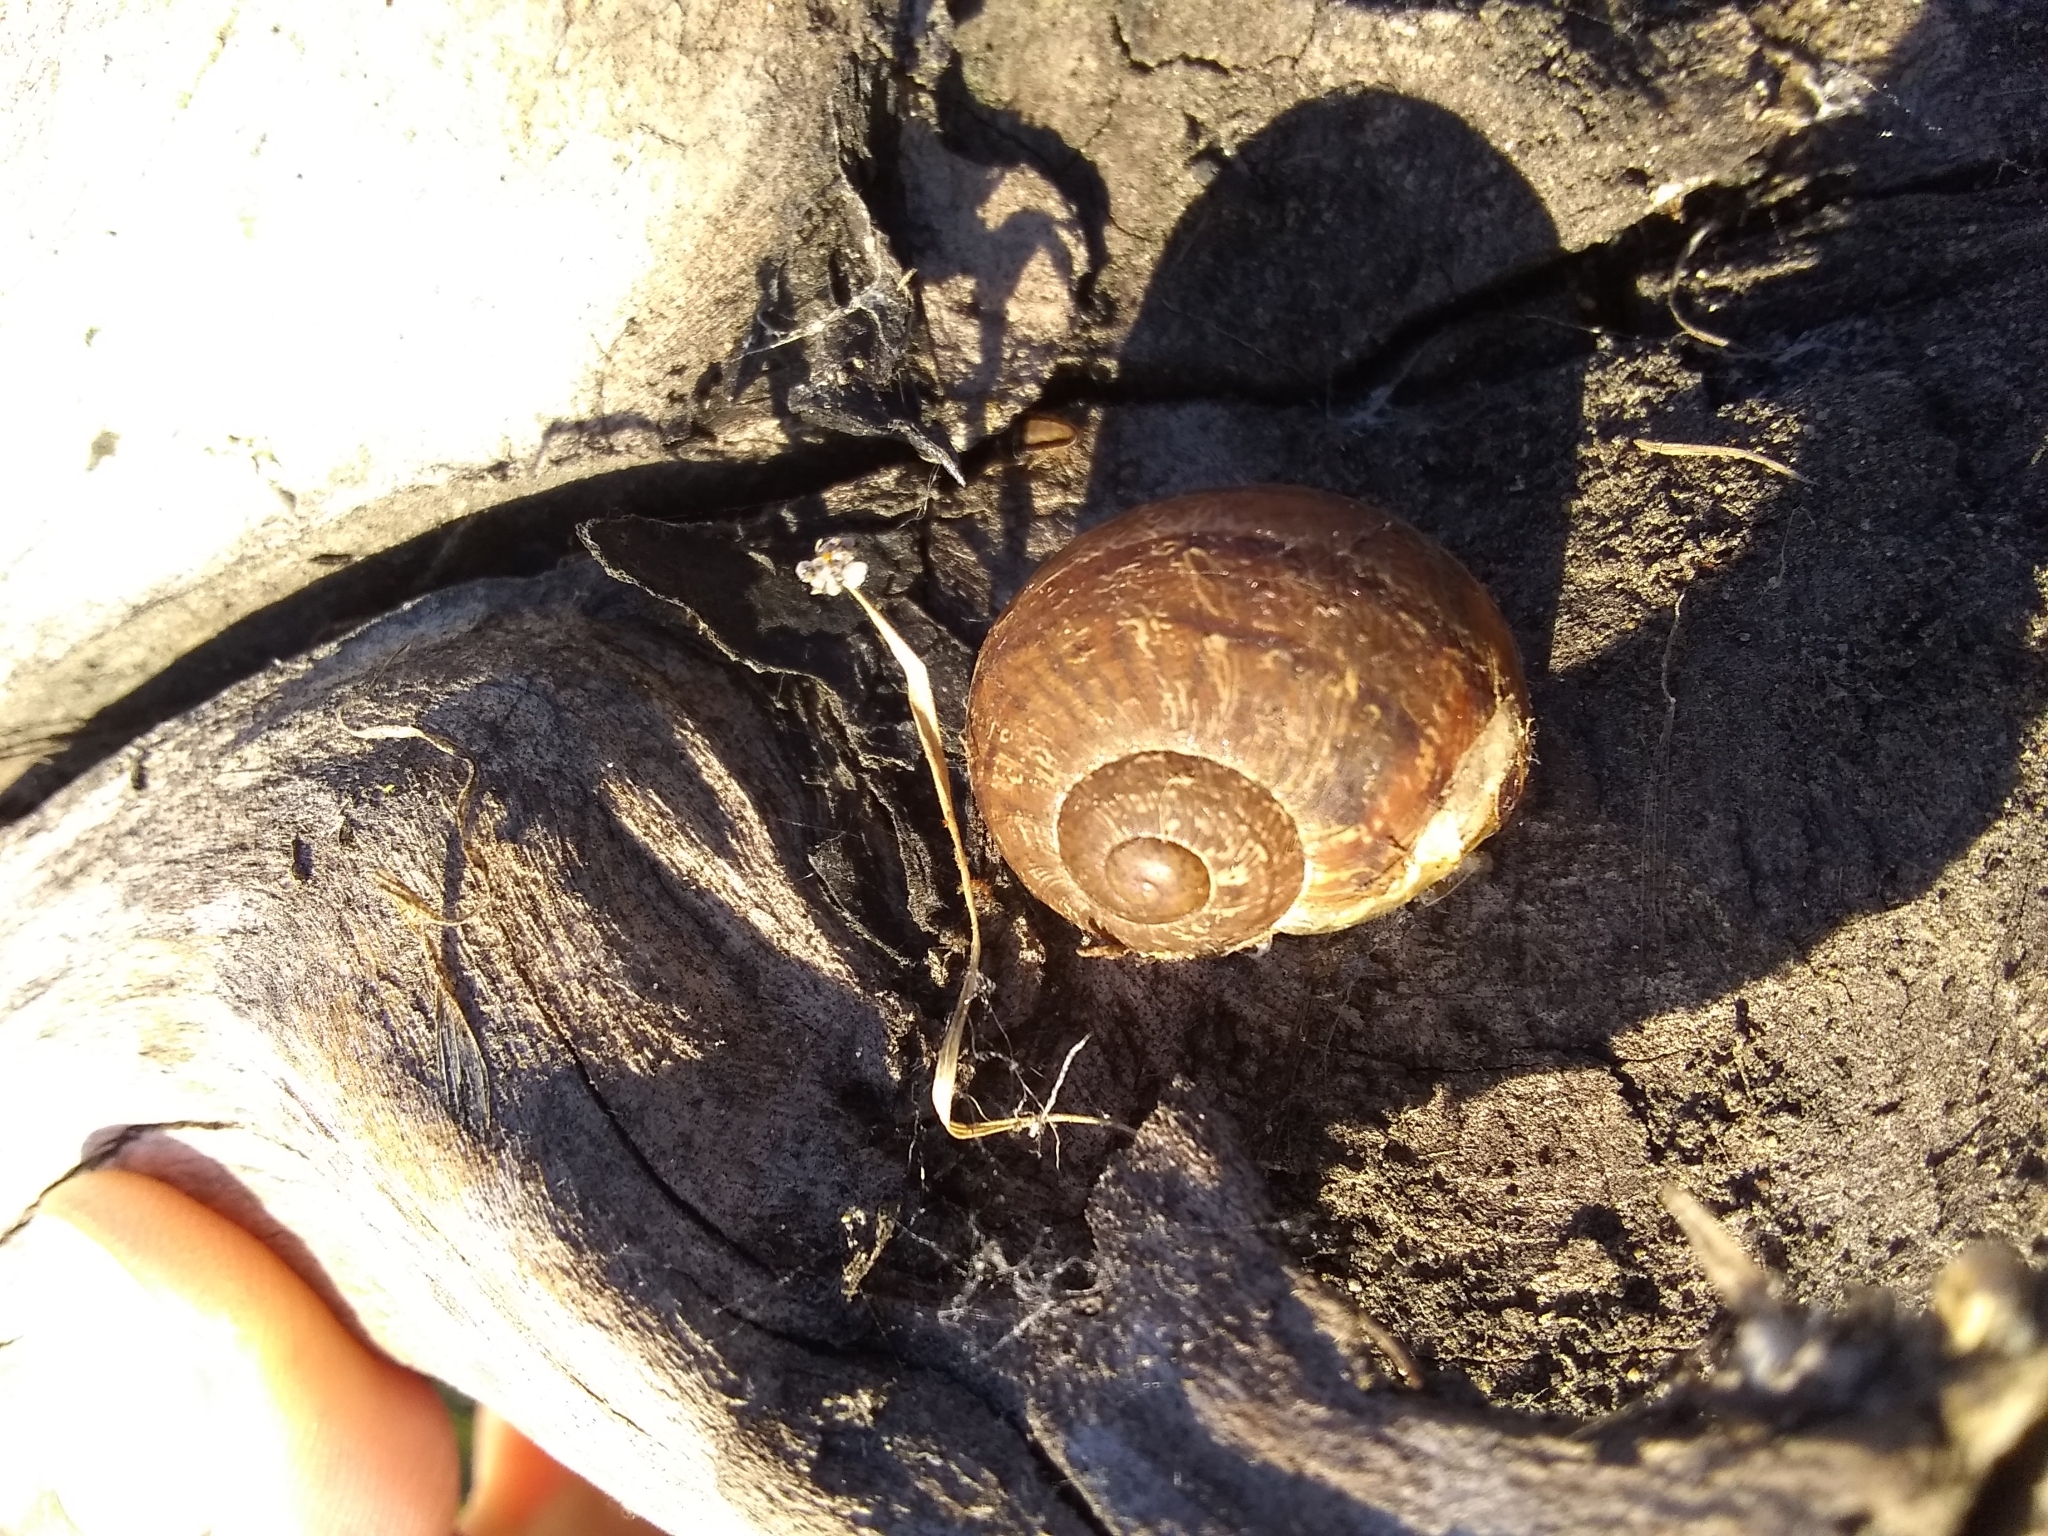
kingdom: Animalia
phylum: Mollusca
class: Gastropoda
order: Stylommatophora
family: Helicidae
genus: Cornu
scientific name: Cornu aspersum
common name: Brown garden snail
